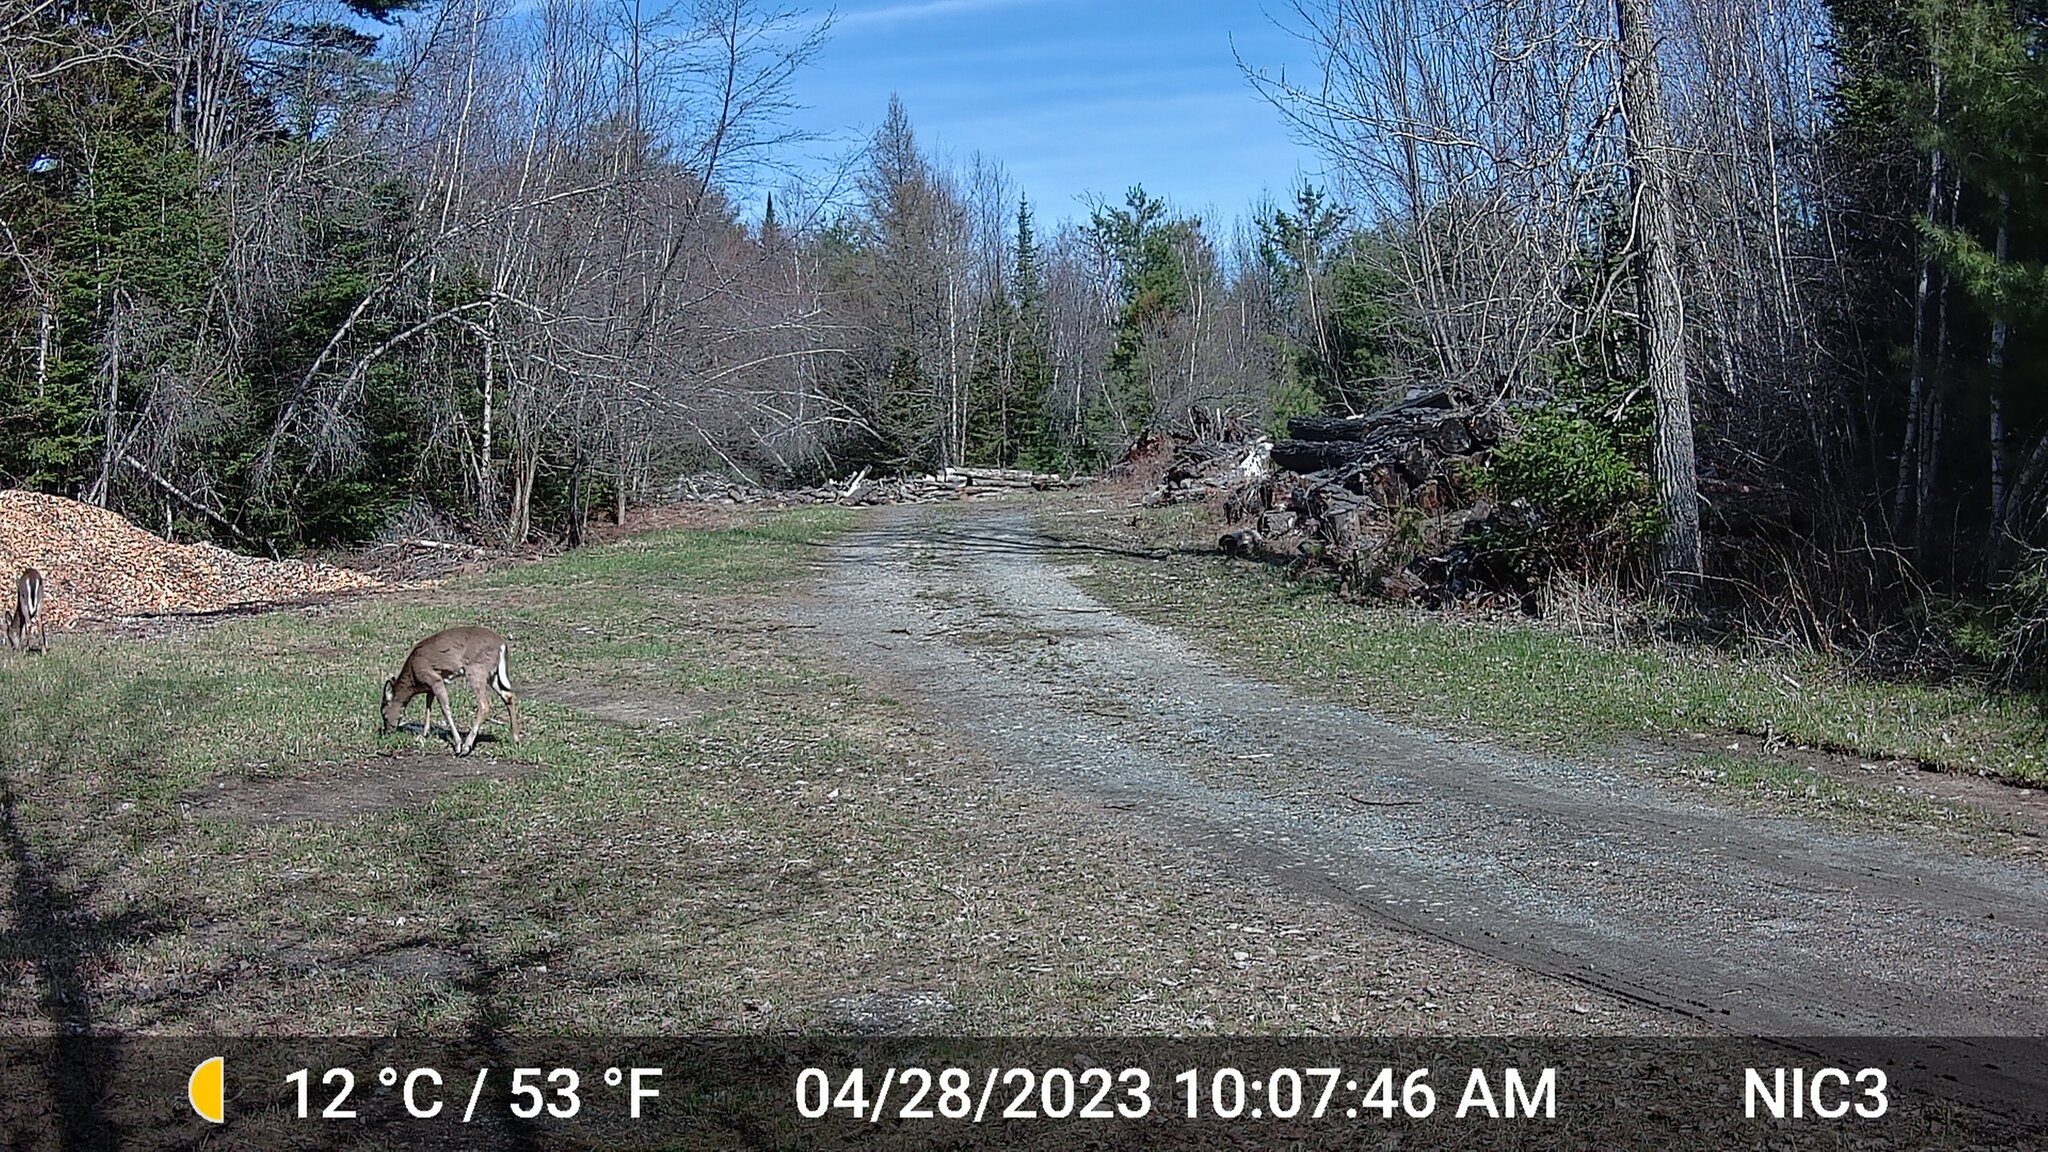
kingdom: Animalia
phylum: Chordata
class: Mammalia
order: Artiodactyla
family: Cervidae
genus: Odocoileus
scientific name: Odocoileus virginianus
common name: White-tailed deer
